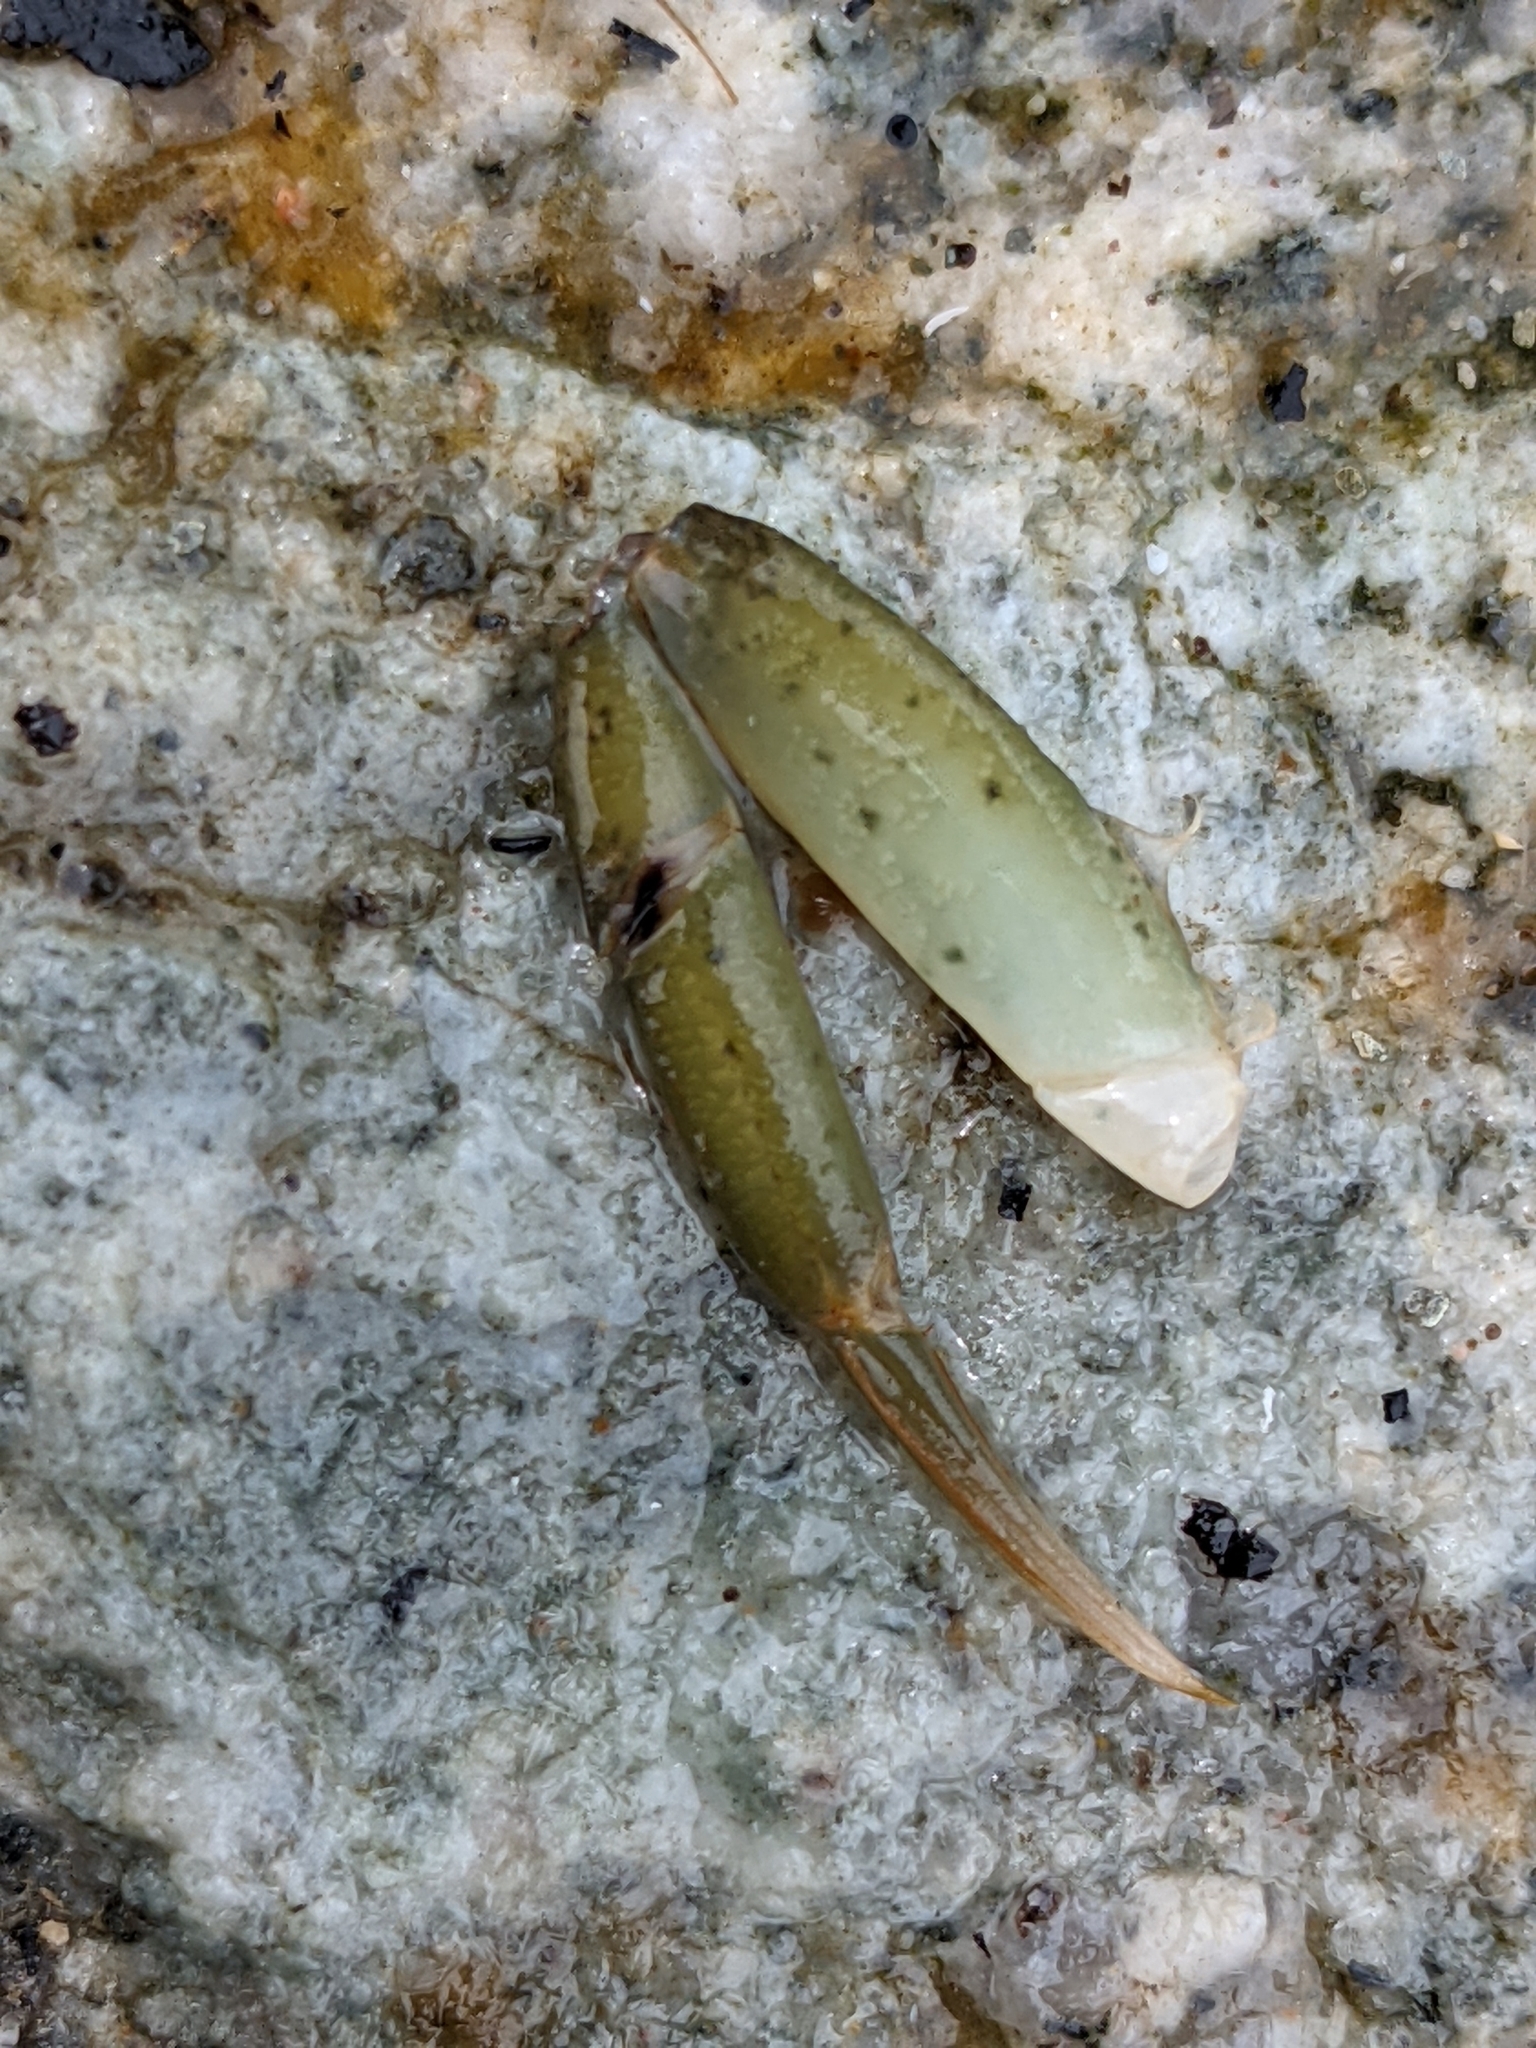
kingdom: Animalia
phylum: Arthropoda
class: Malacostraca
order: Decapoda
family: Carcinidae
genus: Carcinus
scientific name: Carcinus aestuarii
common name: Mediterranean green crab
